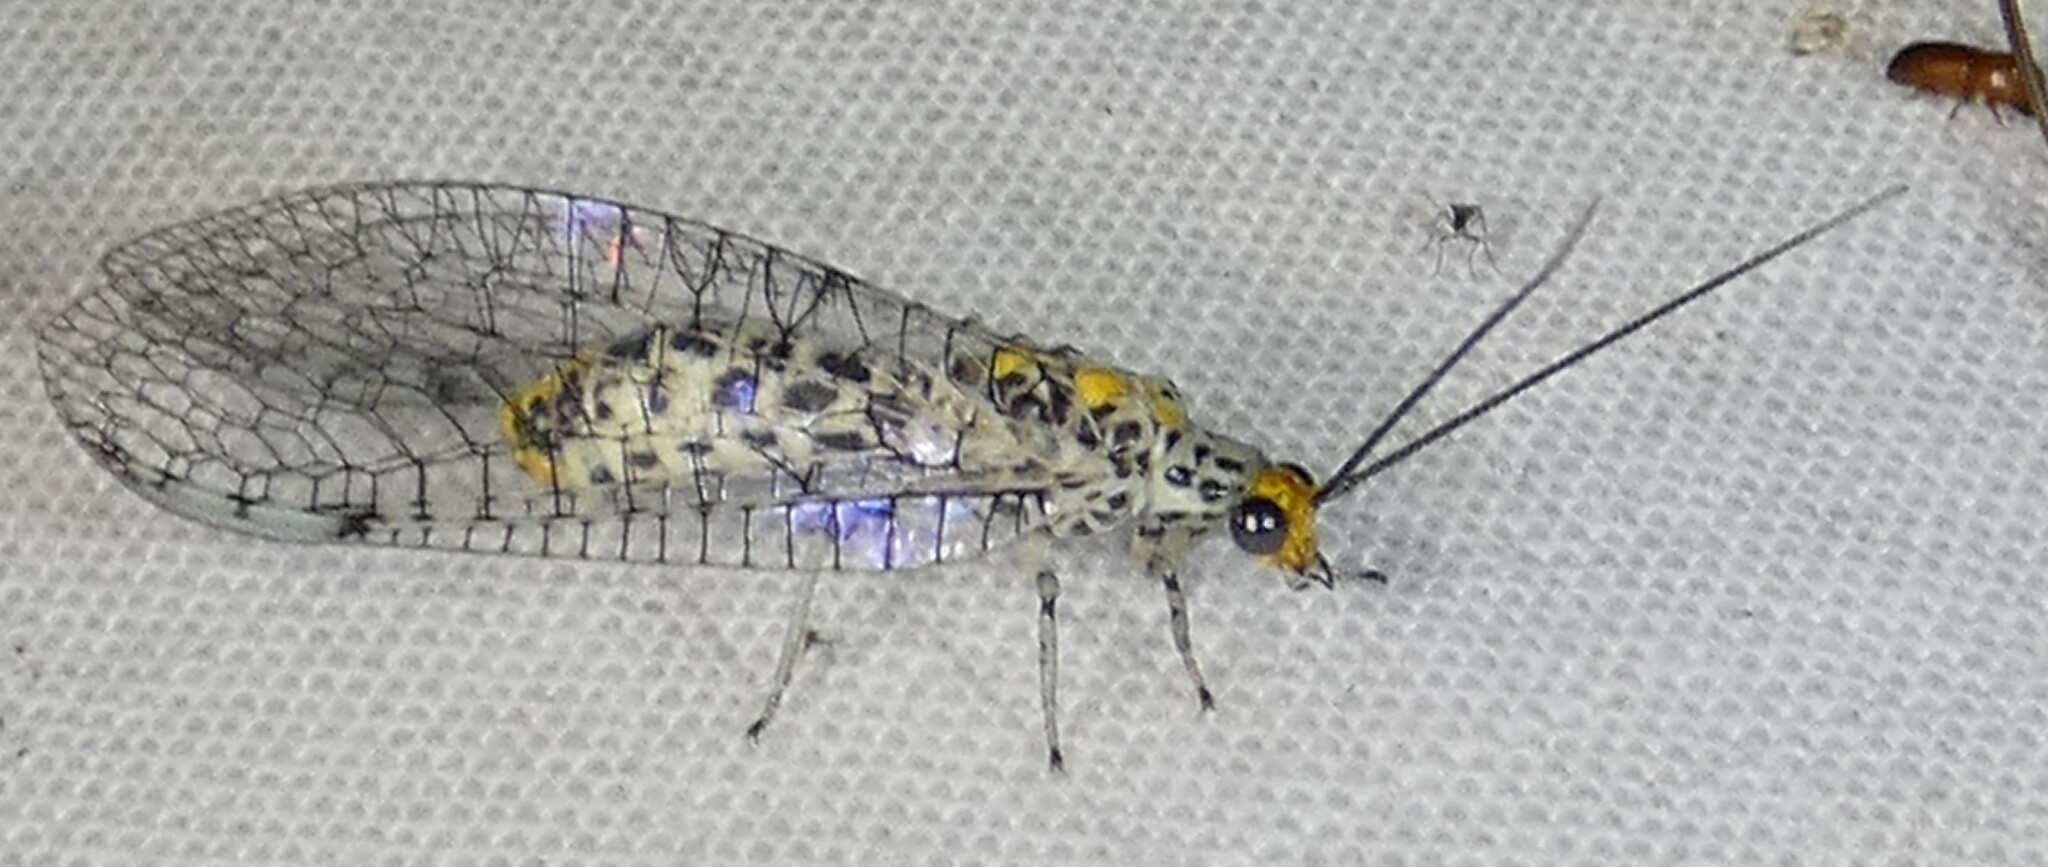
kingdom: Animalia
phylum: Arthropoda
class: Insecta
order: Neuroptera
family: Chrysopidae
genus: Abachrysa
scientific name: Abachrysa eureka
